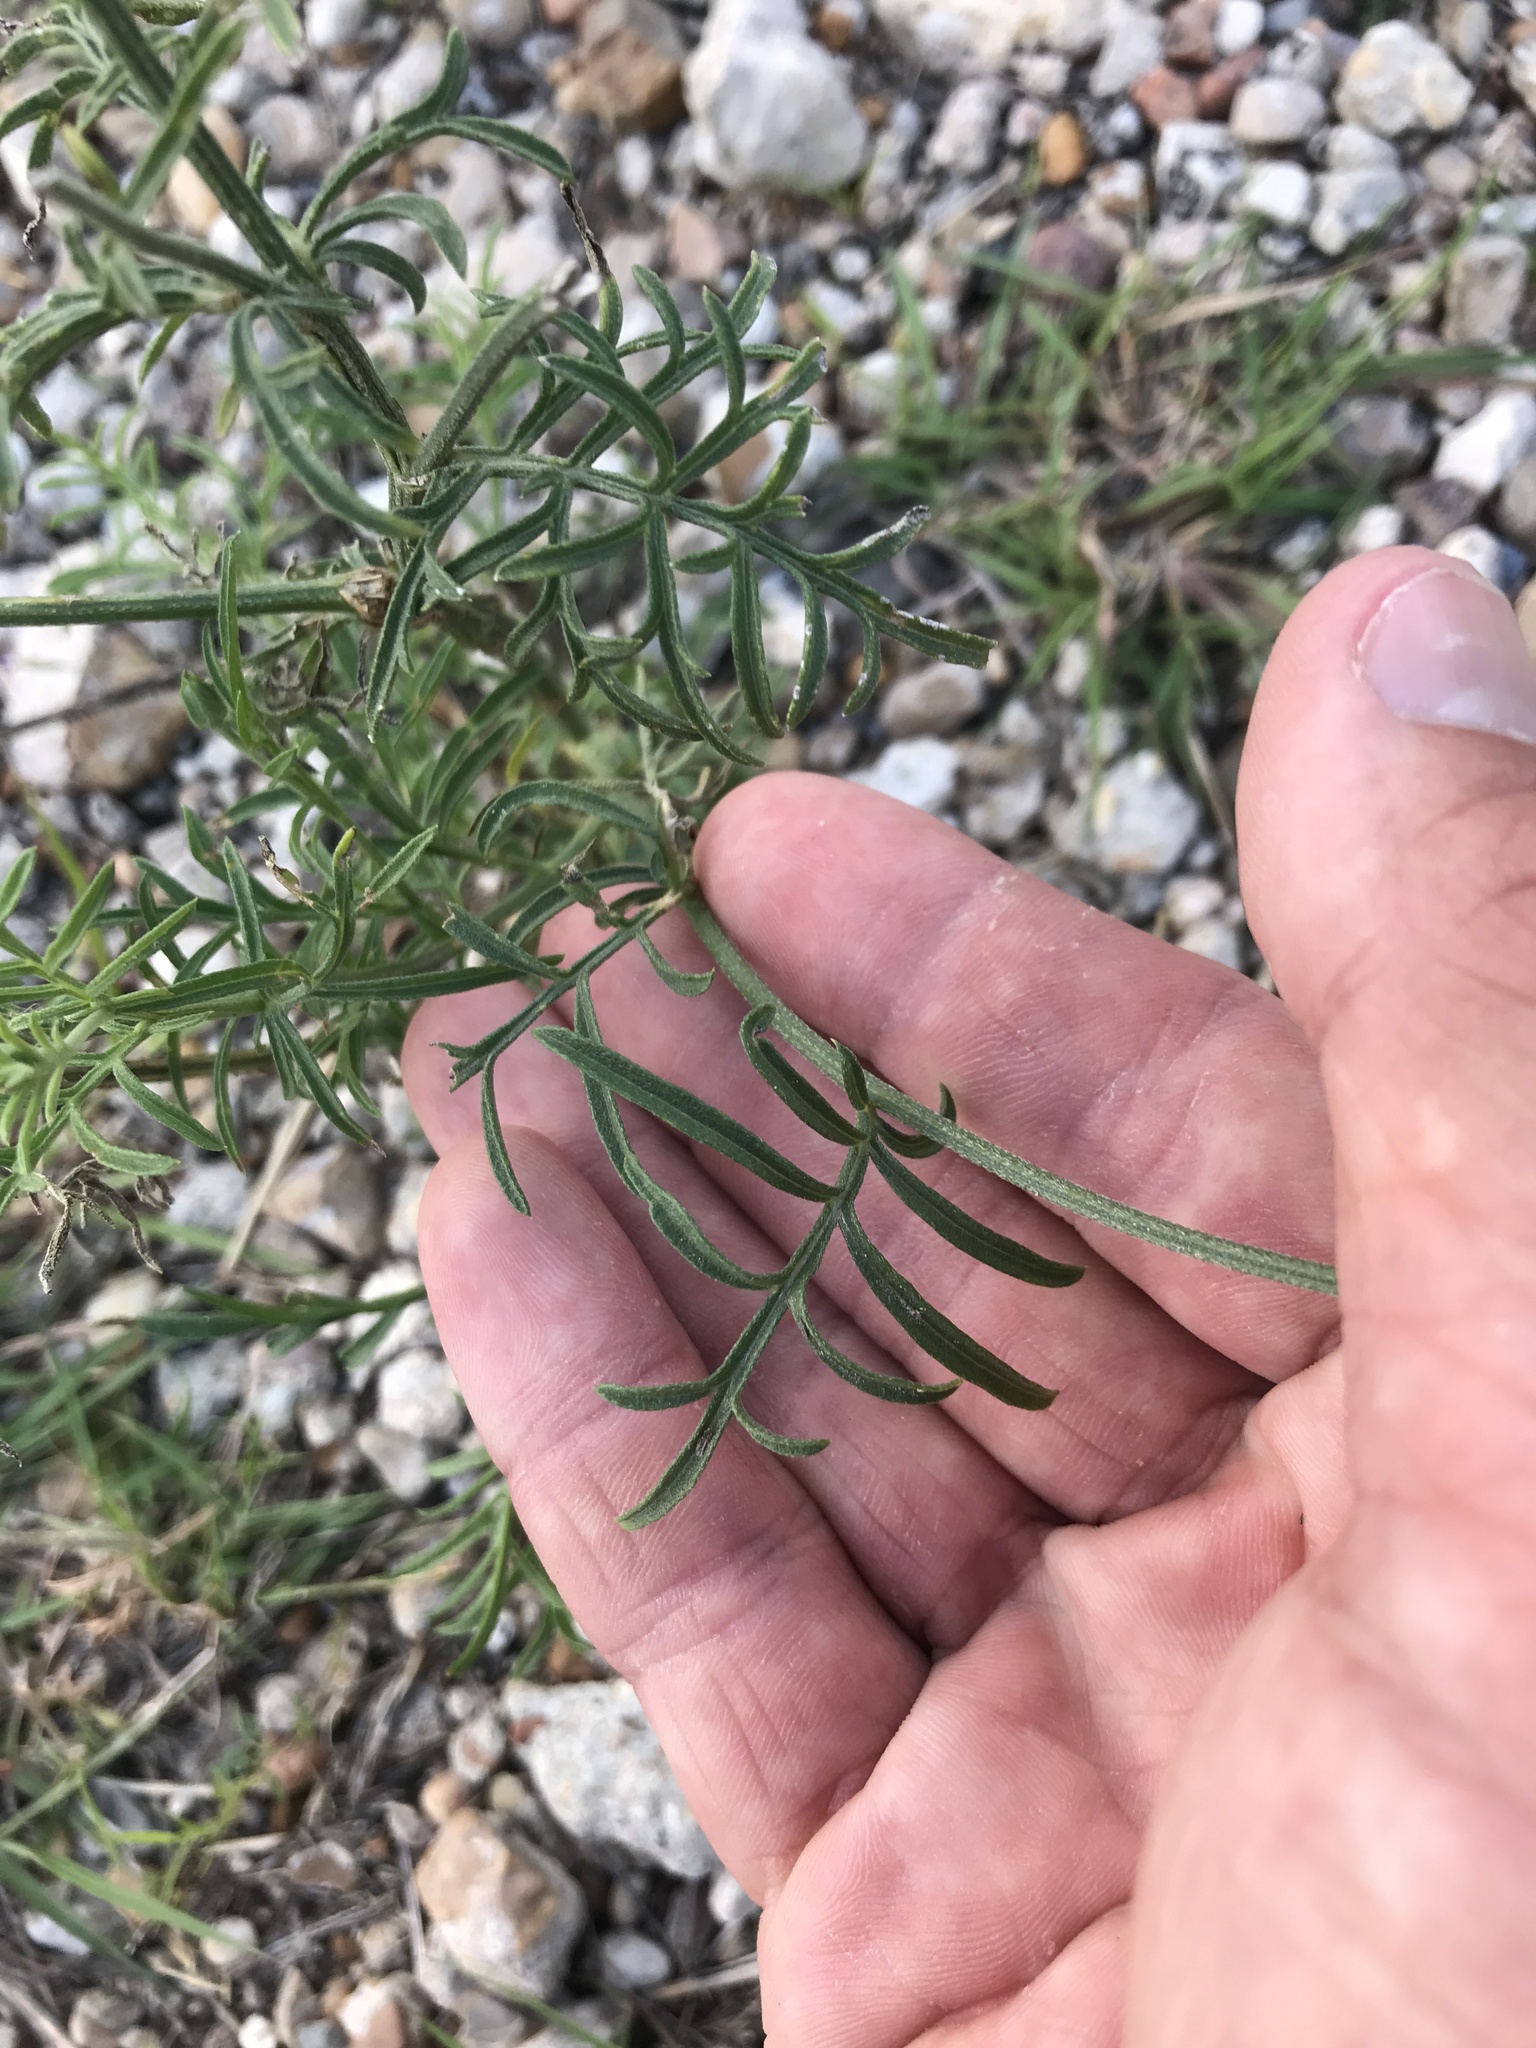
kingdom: Plantae
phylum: Tracheophyta
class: Magnoliopsida
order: Asterales
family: Asteraceae
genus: Ratibida
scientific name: Ratibida columnifera
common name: Prairie coneflower
